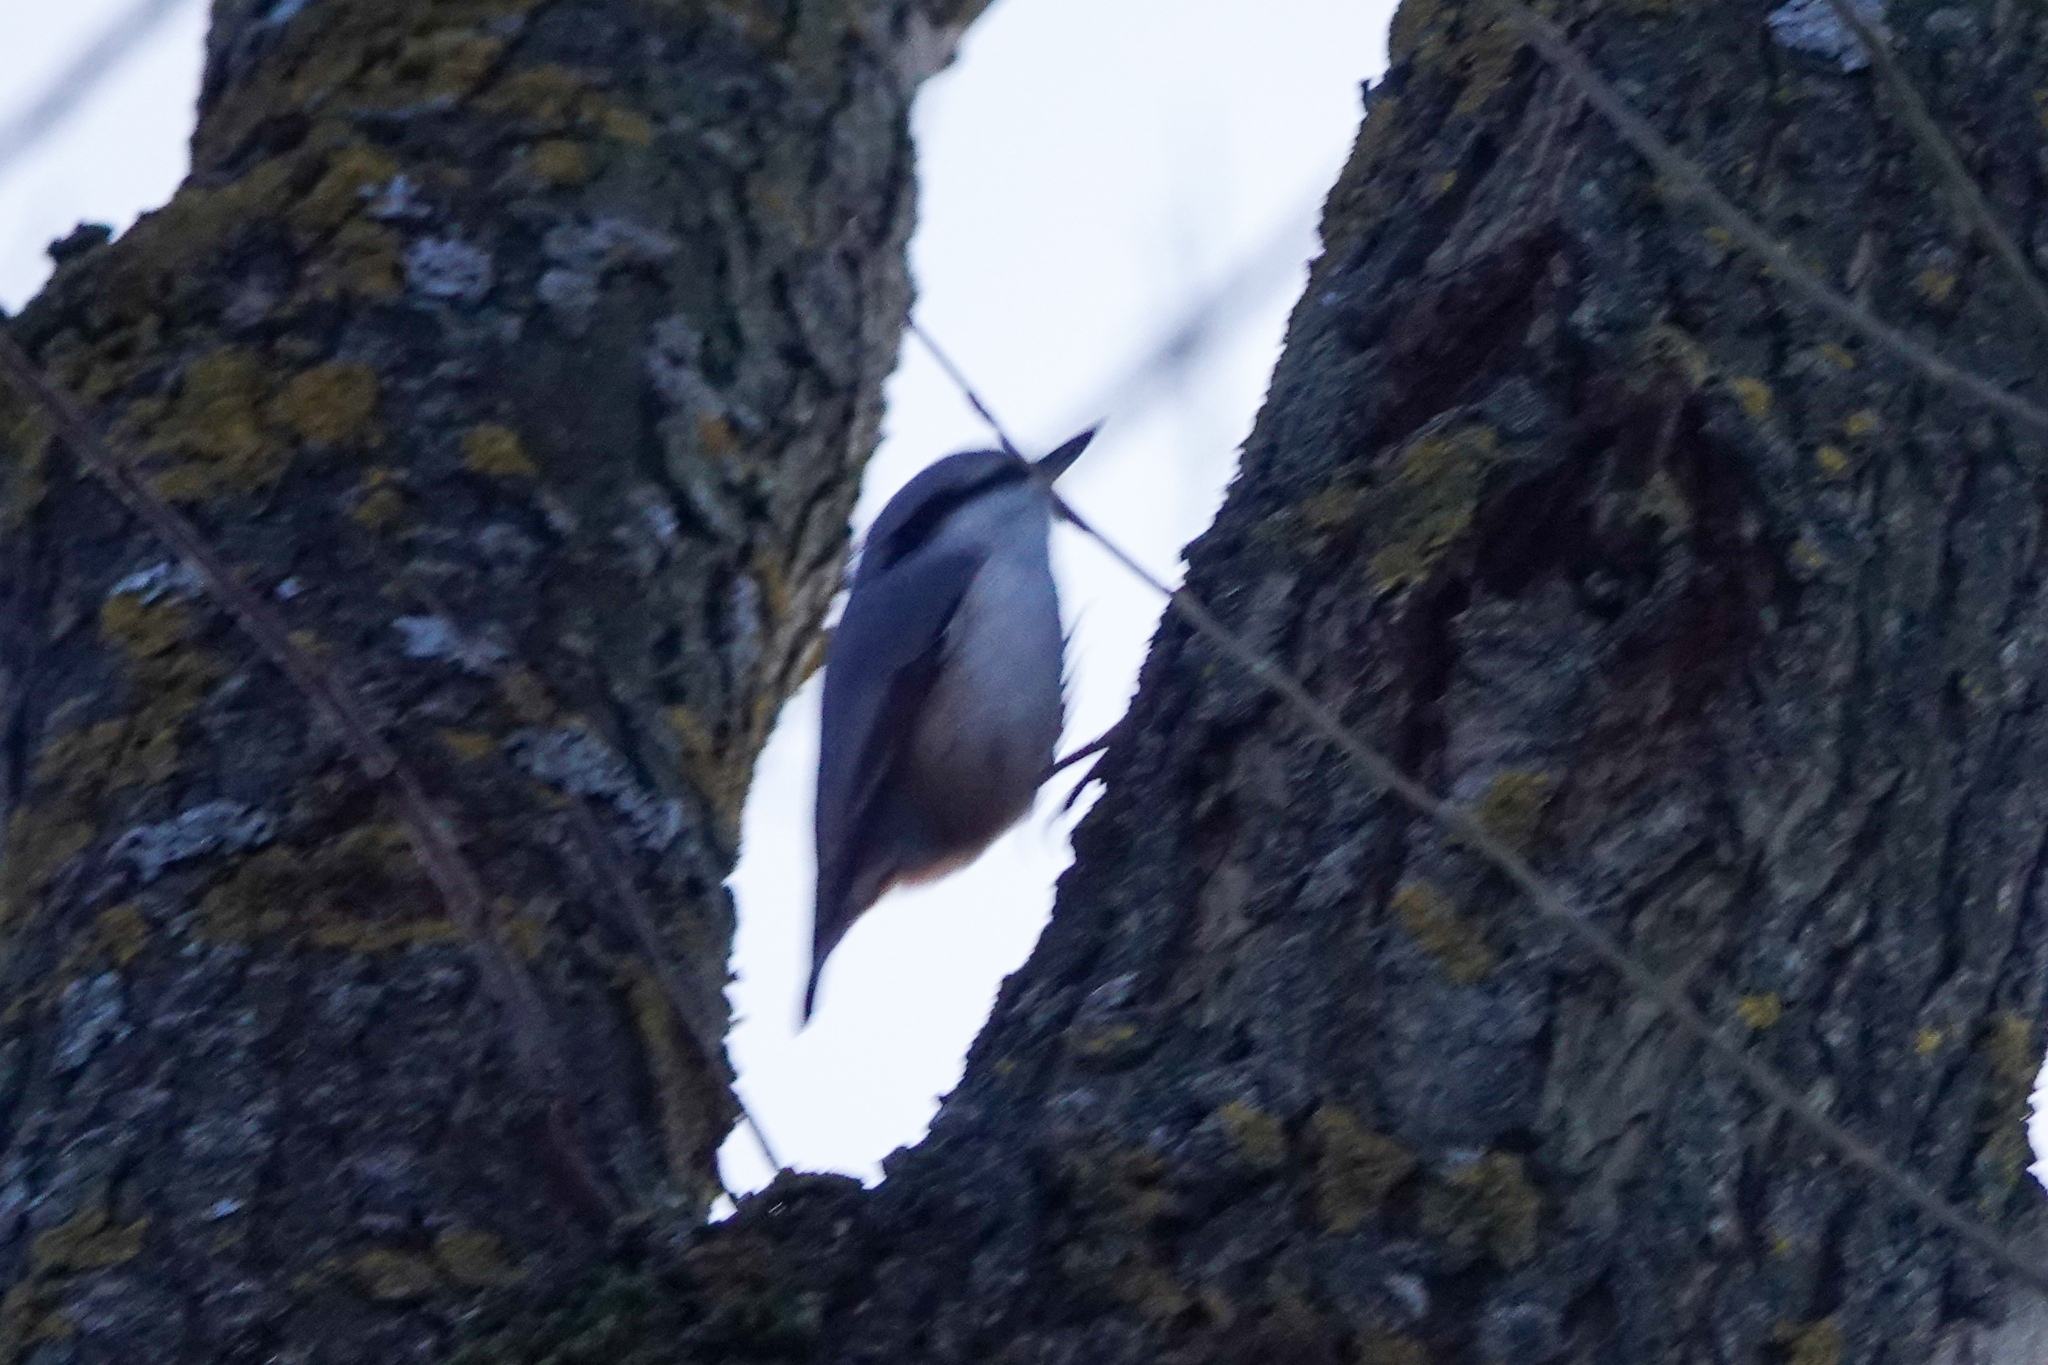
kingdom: Animalia
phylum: Chordata
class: Aves
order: Passeriformes
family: Sittidae
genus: Sitta
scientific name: Sitta europaea
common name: Eurasian nuthatch
